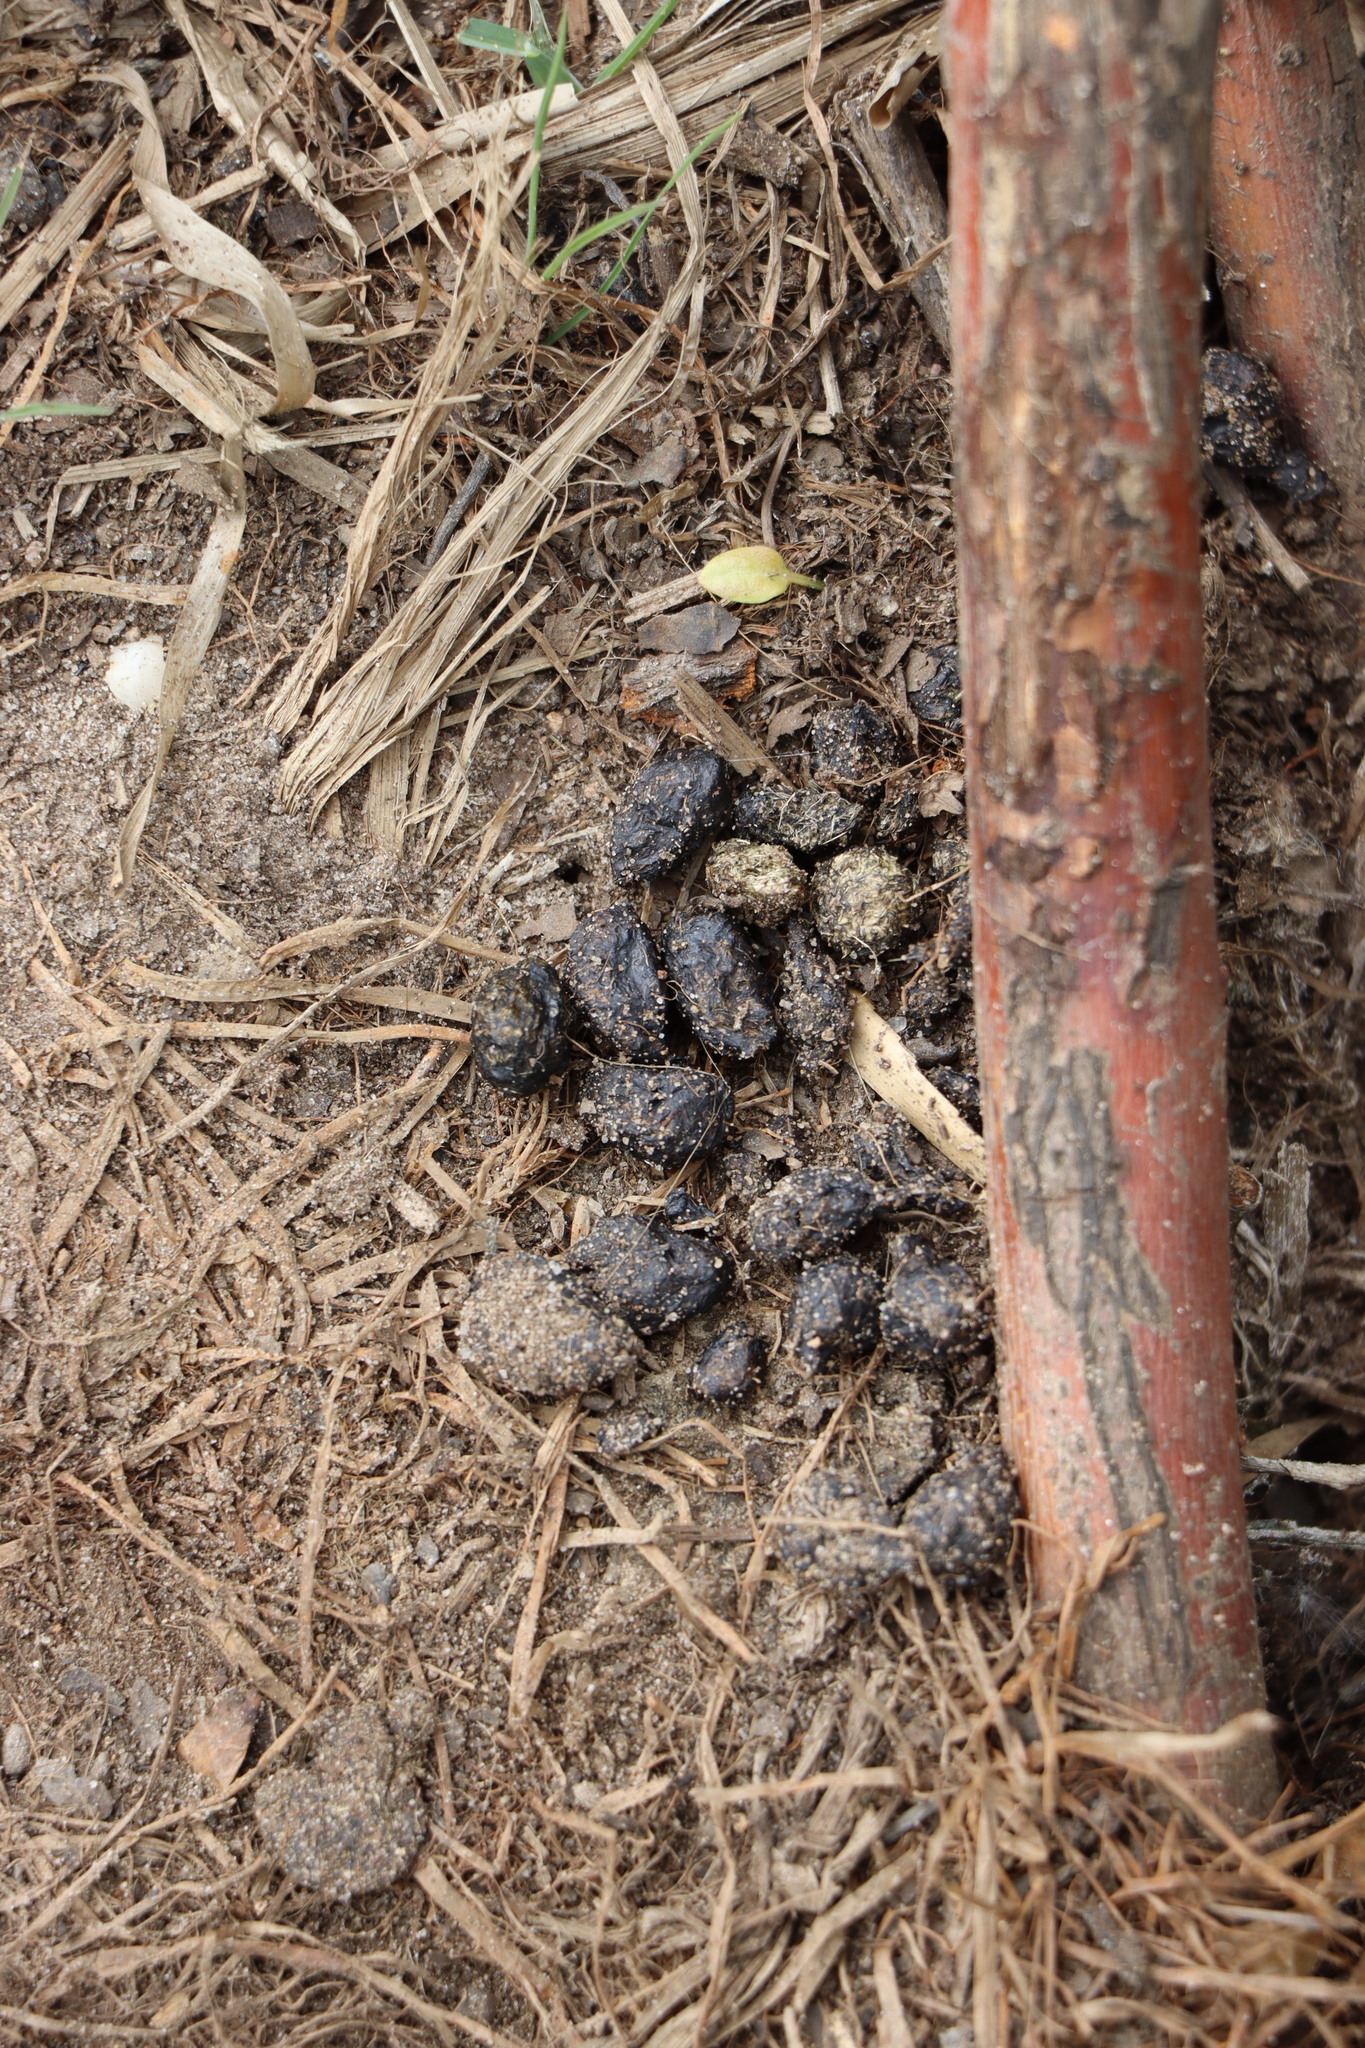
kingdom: Animalia
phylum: Chordata
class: Mammalia
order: Lagomorpha
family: Leporidae
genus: Oryctolagus
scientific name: Oryctolagus cuniculus
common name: European rabbit
